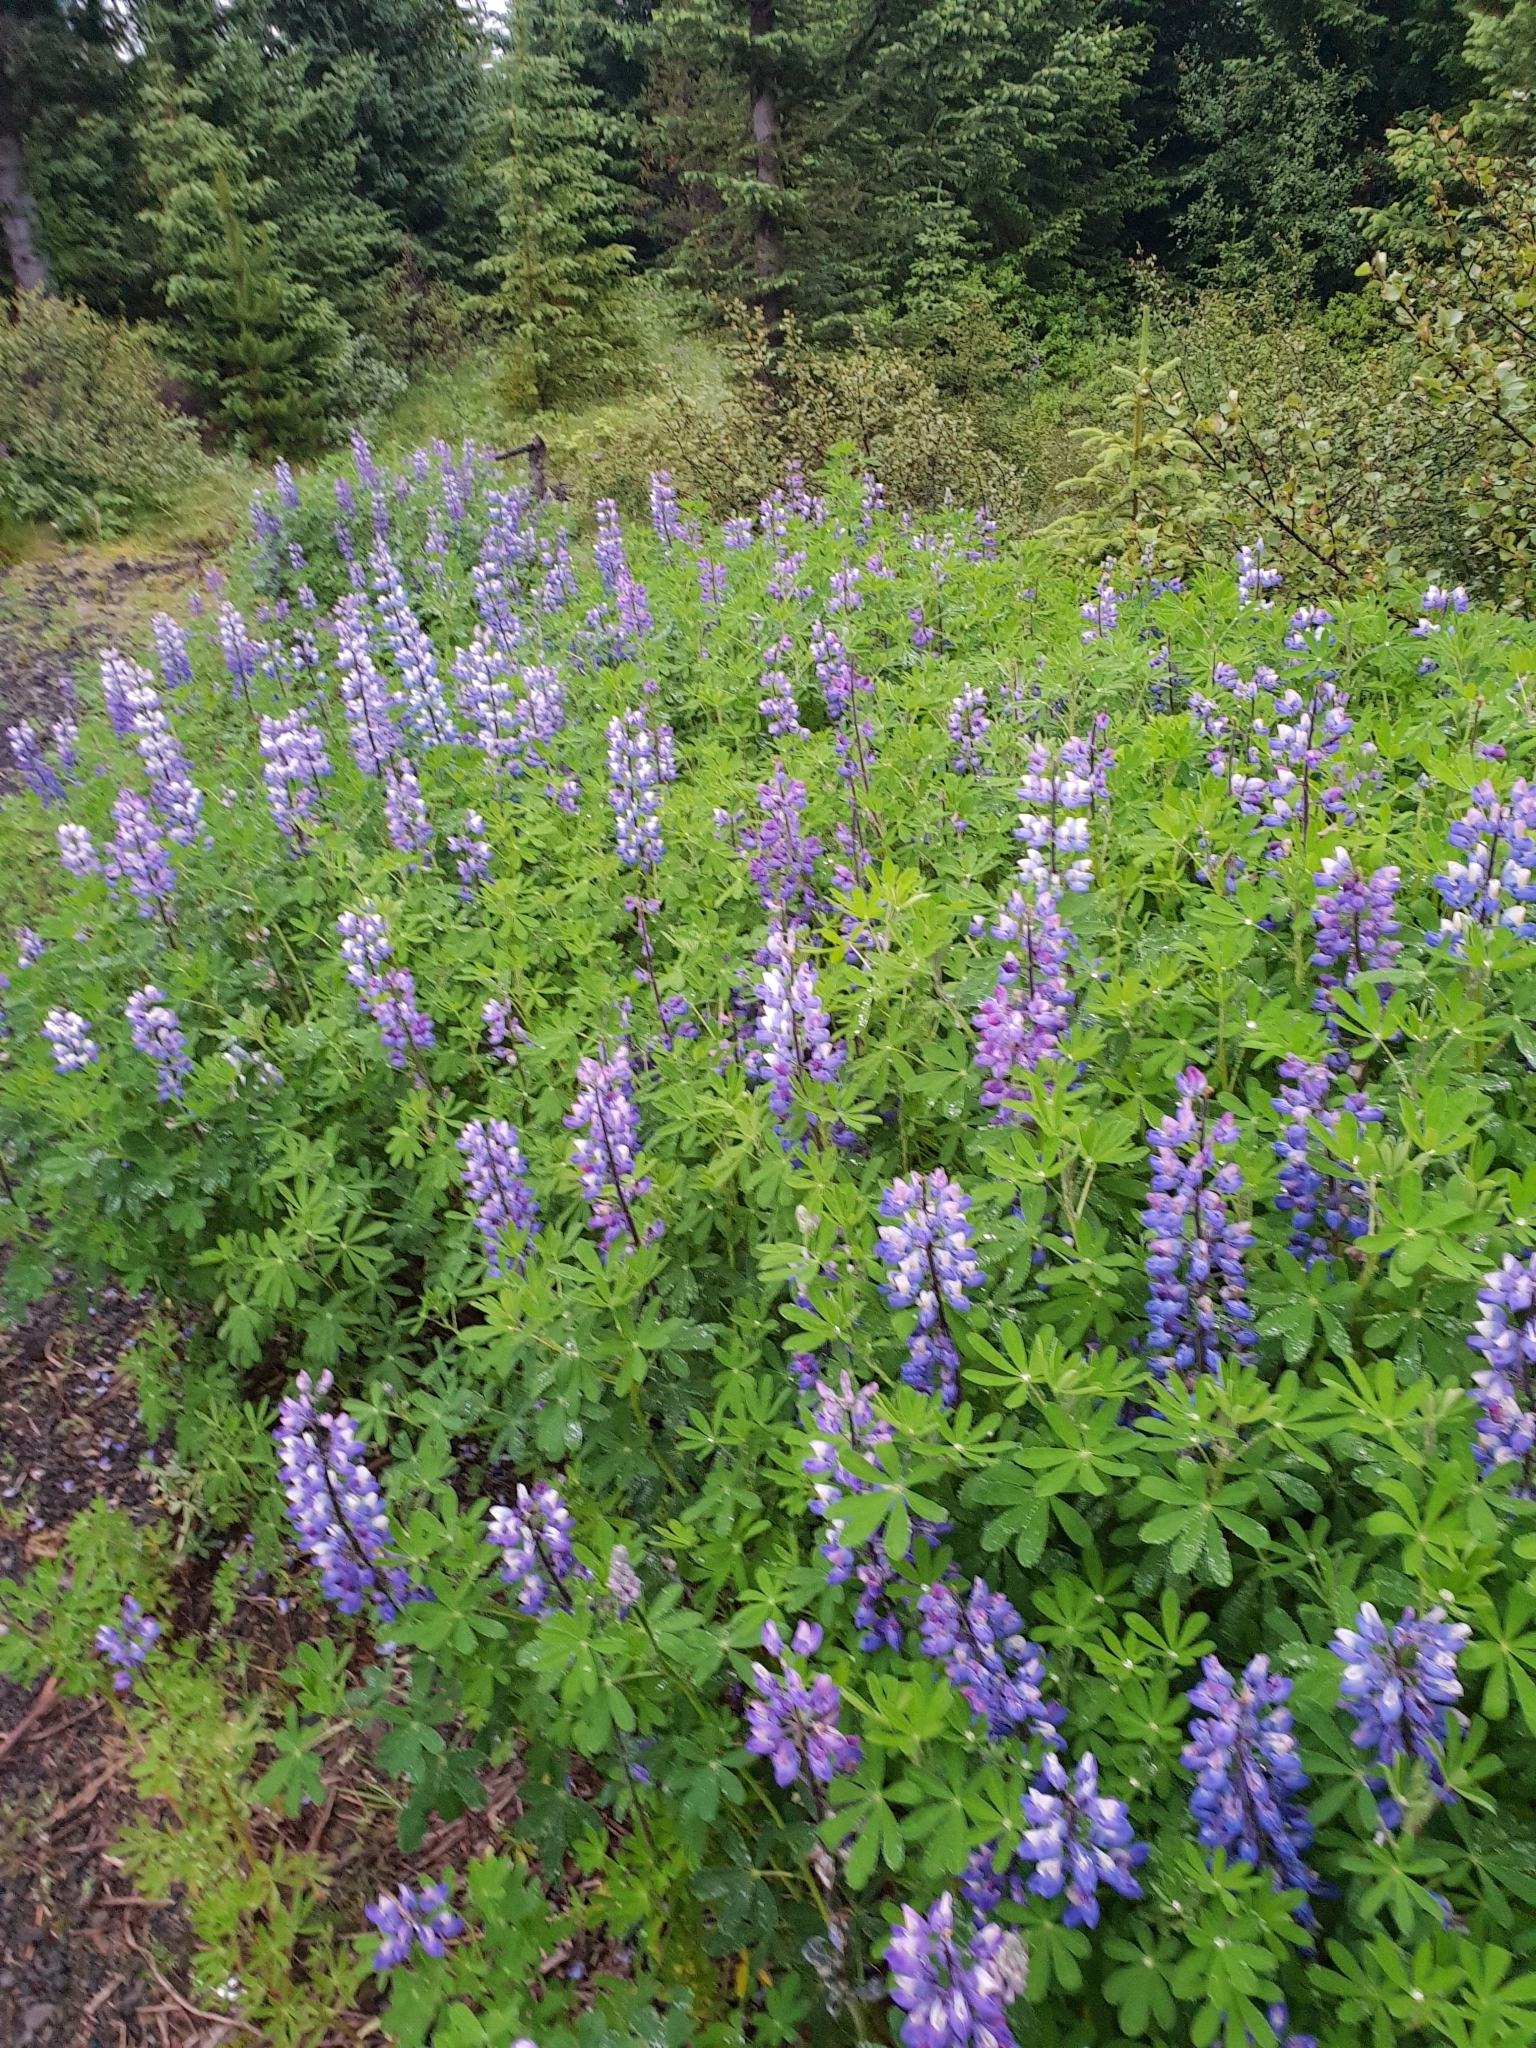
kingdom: Plantae
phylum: Tracheophyta
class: Magnoliopsida
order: Fabales
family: Fabaceae
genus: Lupinus
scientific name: Lupinus nootkatensis
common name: Nootka lupine
